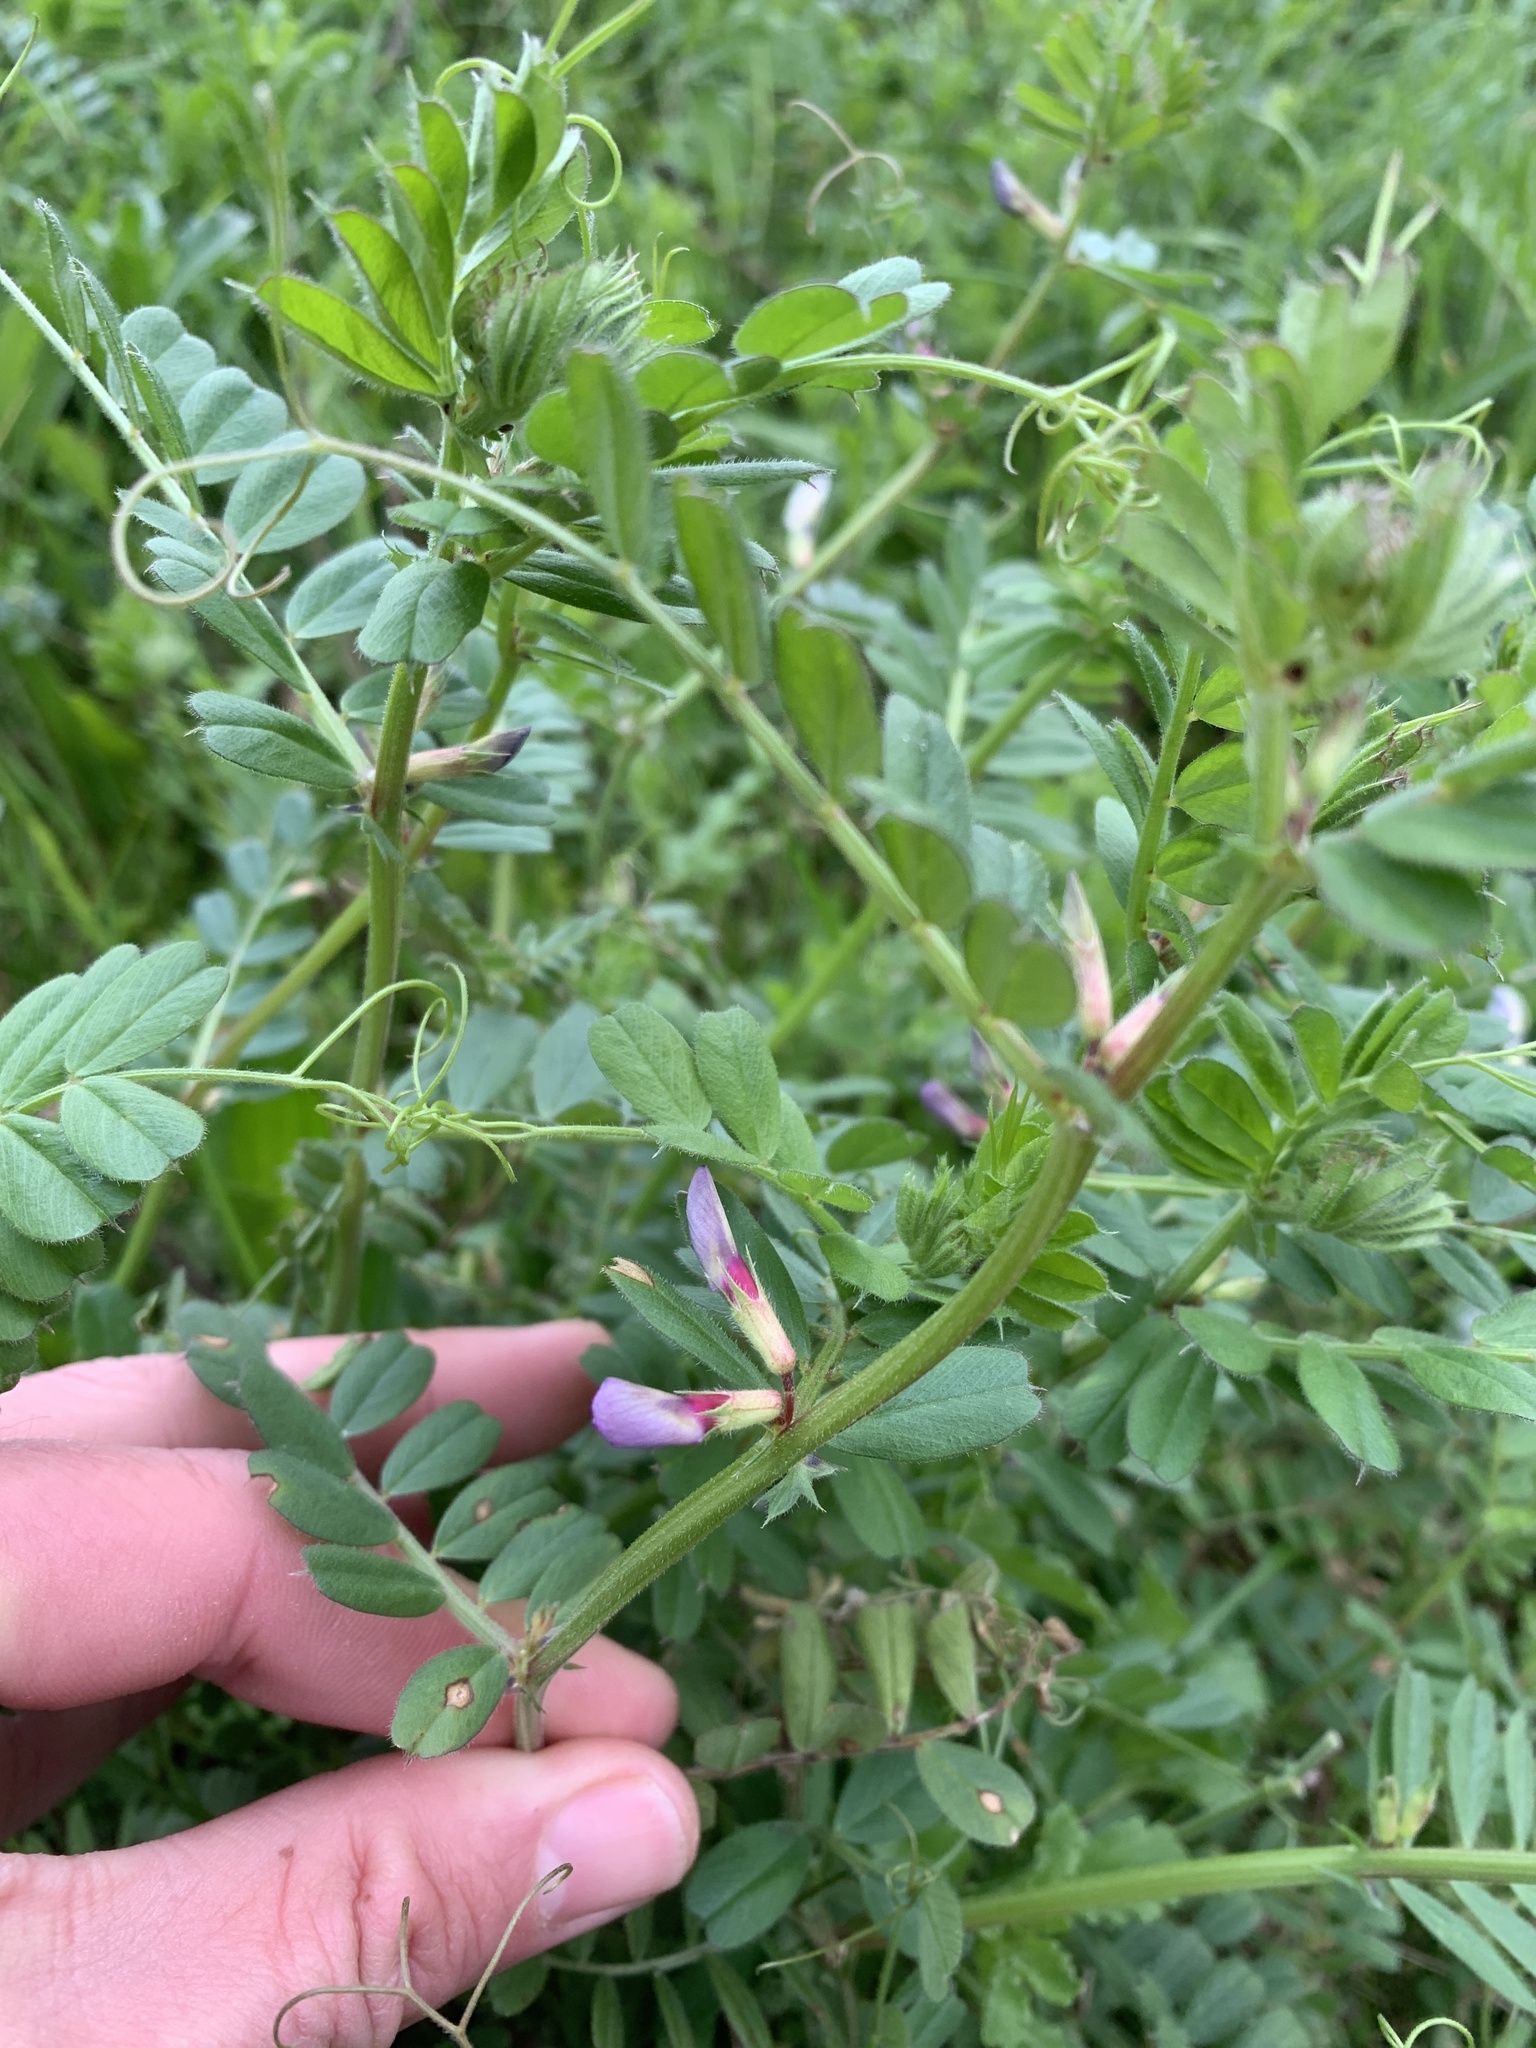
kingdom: Plantae
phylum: Tracheophyta
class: Magnoliopsida
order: Fabales
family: Fabaceae
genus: Vicia
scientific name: Vicia sativa
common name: Garden vetch
